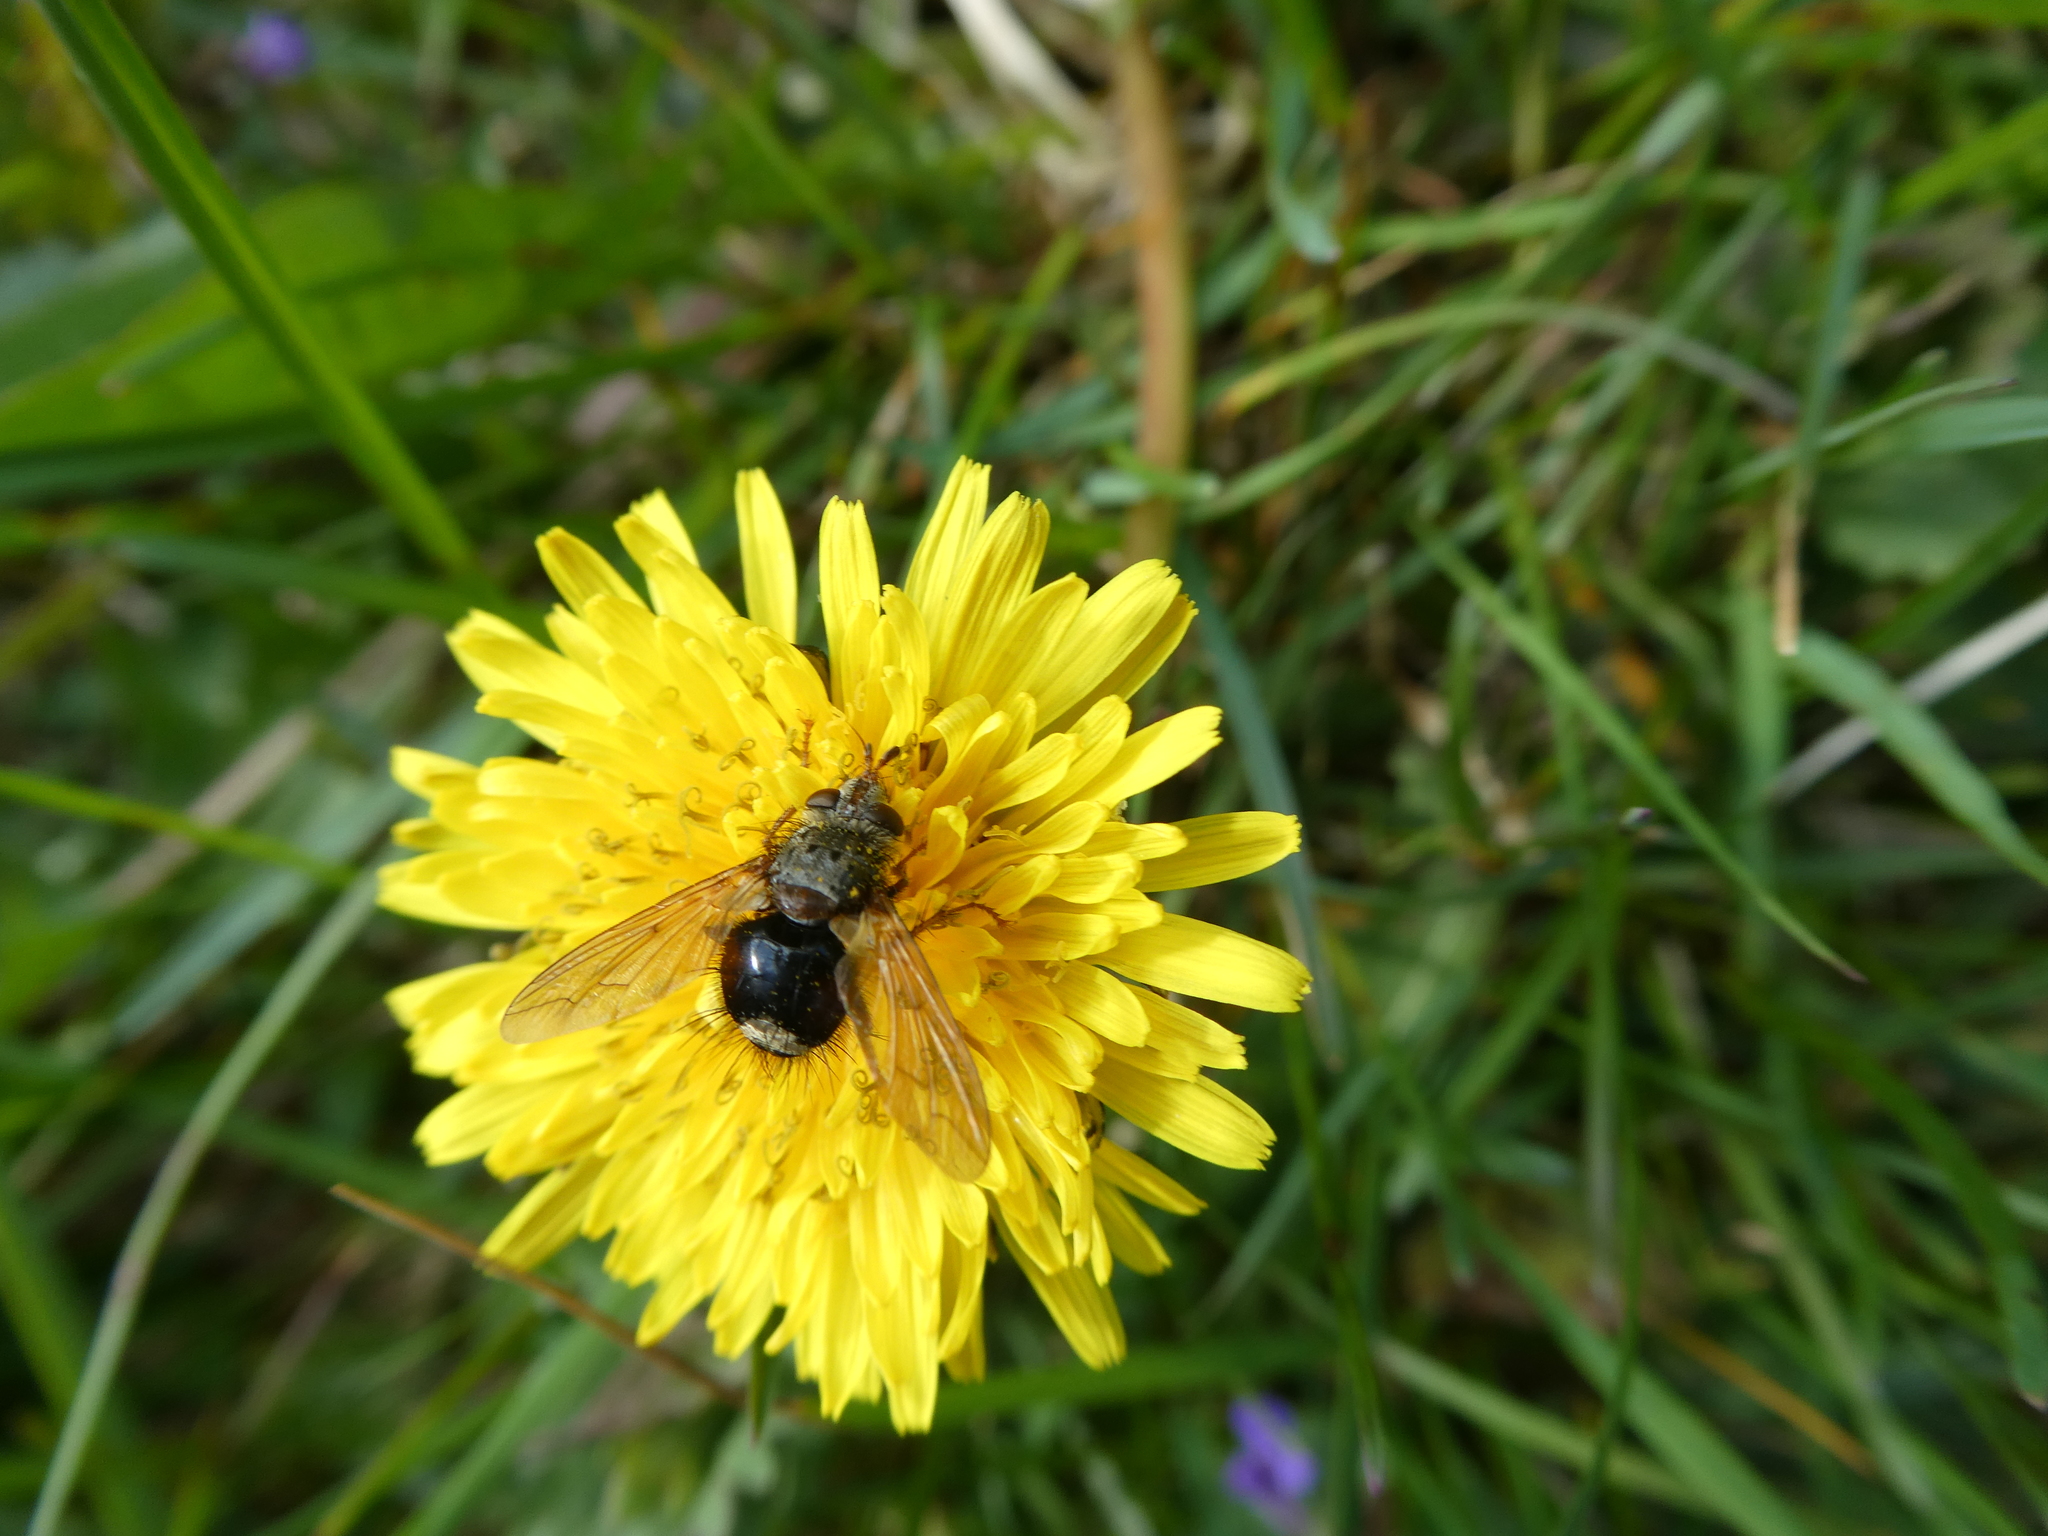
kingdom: Animalia
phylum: Arthropoda
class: Insecta
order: Diptera
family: Tachinidae
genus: Epalpus
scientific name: Epalpus signifer
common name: Early tachinid fly
